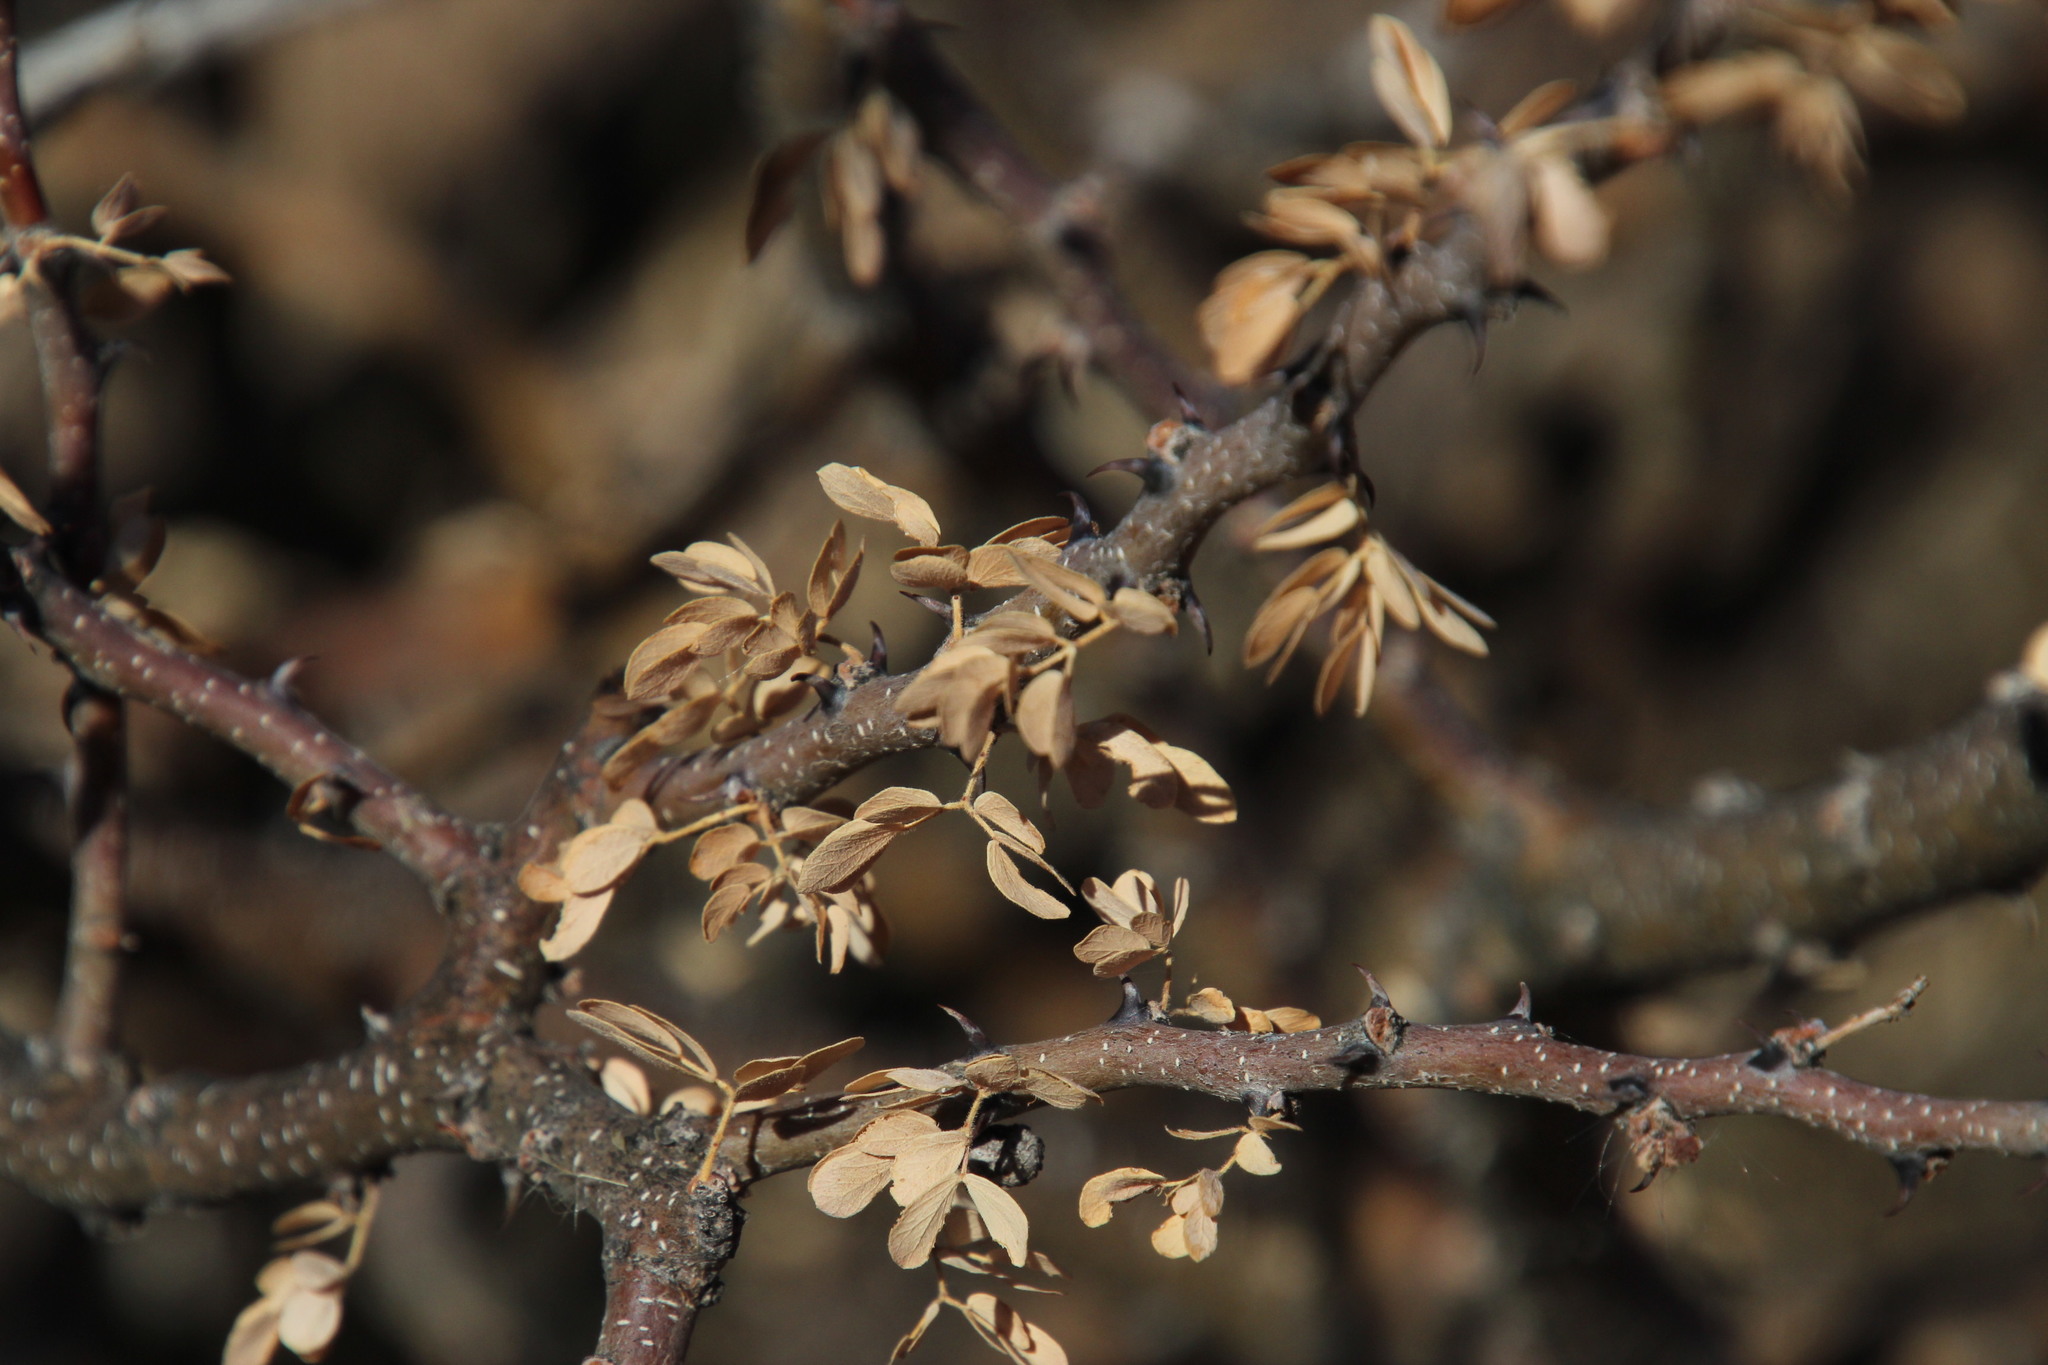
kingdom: Plantae
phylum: Tracheophyta
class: Magnoliopsida
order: Fabales
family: Fabaceae
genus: Senegalia
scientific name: Senegalia mellifera
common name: Hookthorn
